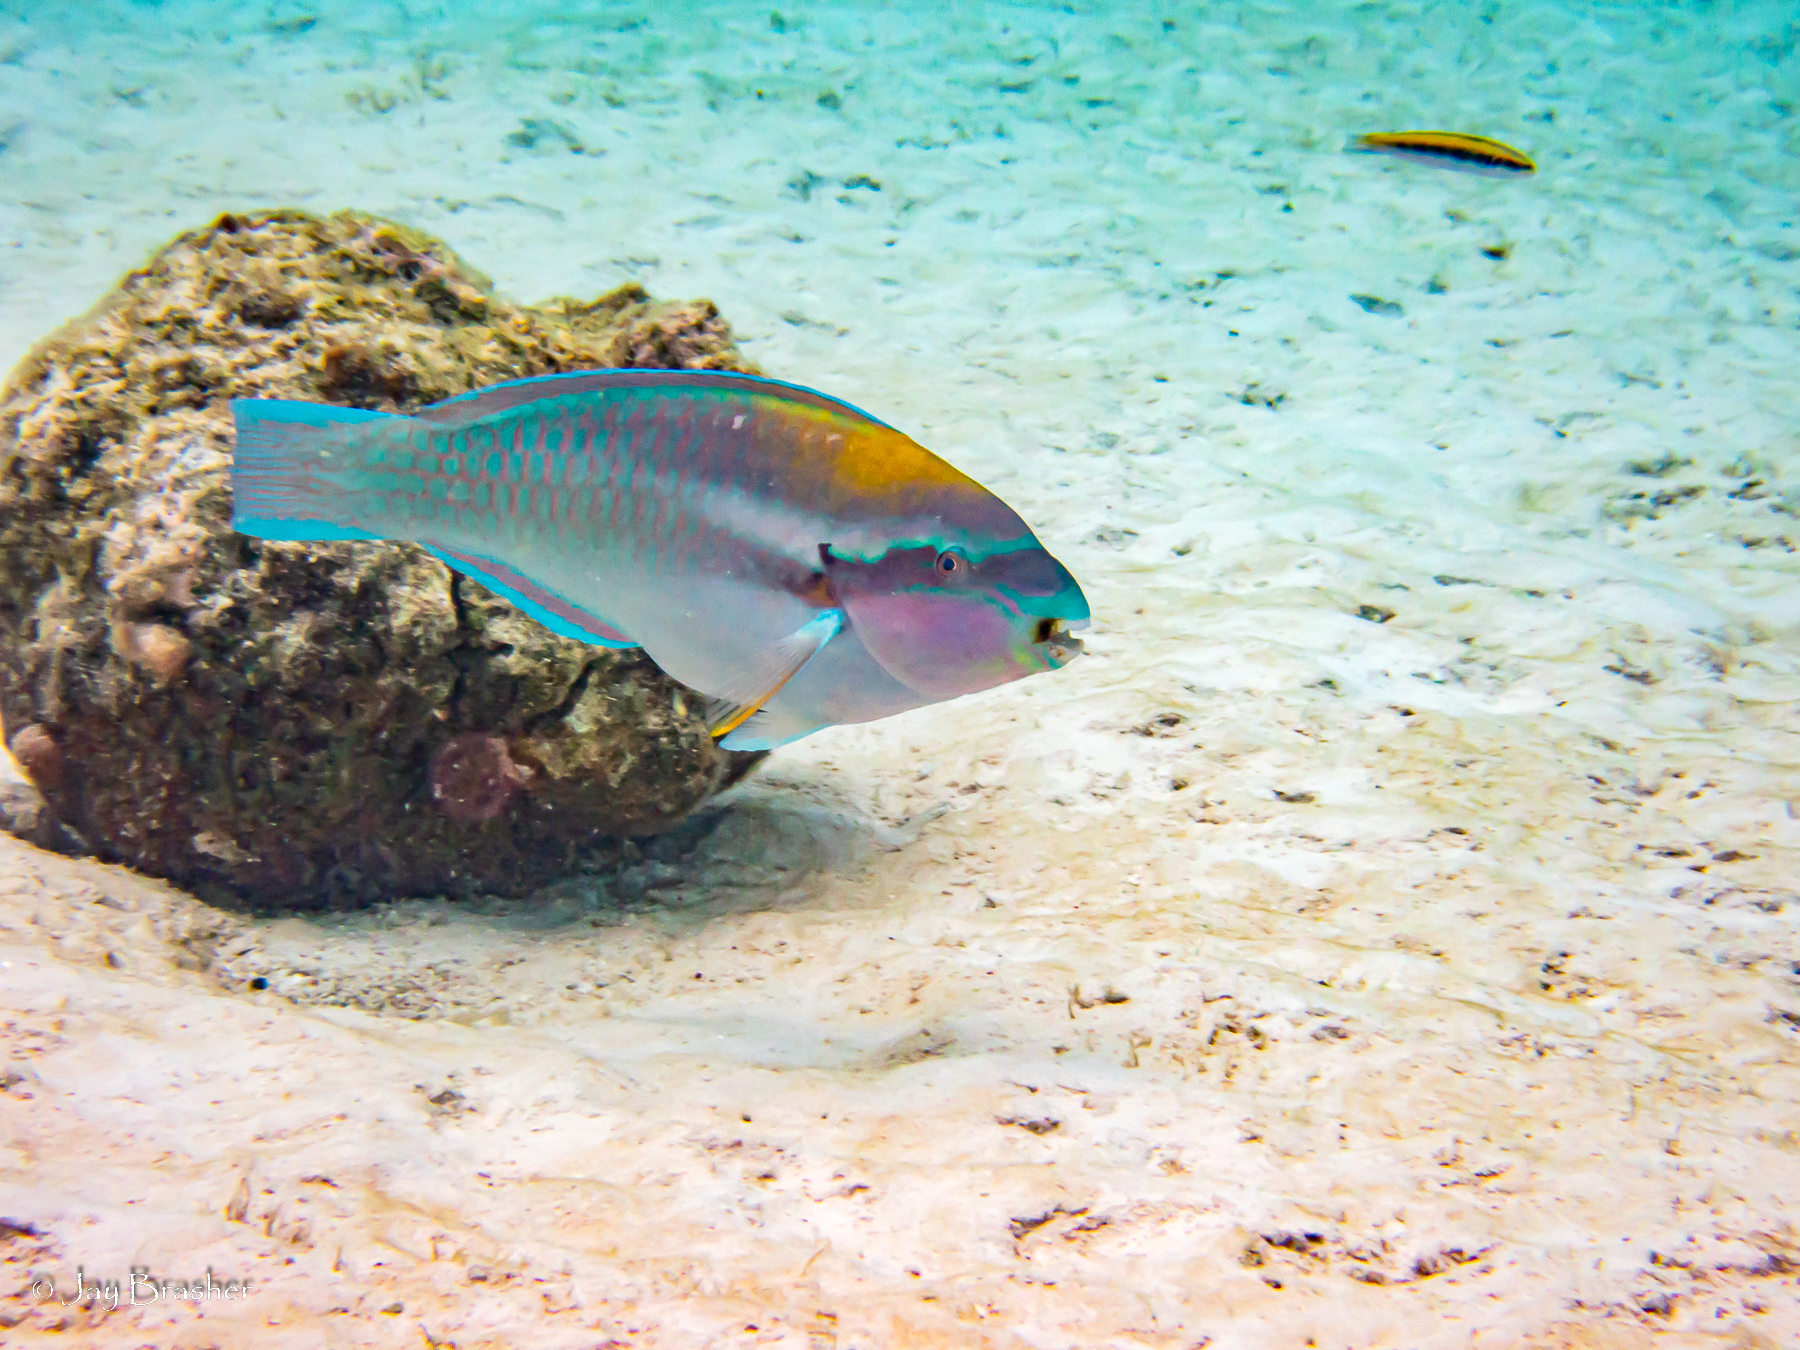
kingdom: Animalia
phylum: Chordata
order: Perciformes
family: Scaridae
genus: Scarus
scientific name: Scarus iseri
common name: Striped parrotfish
